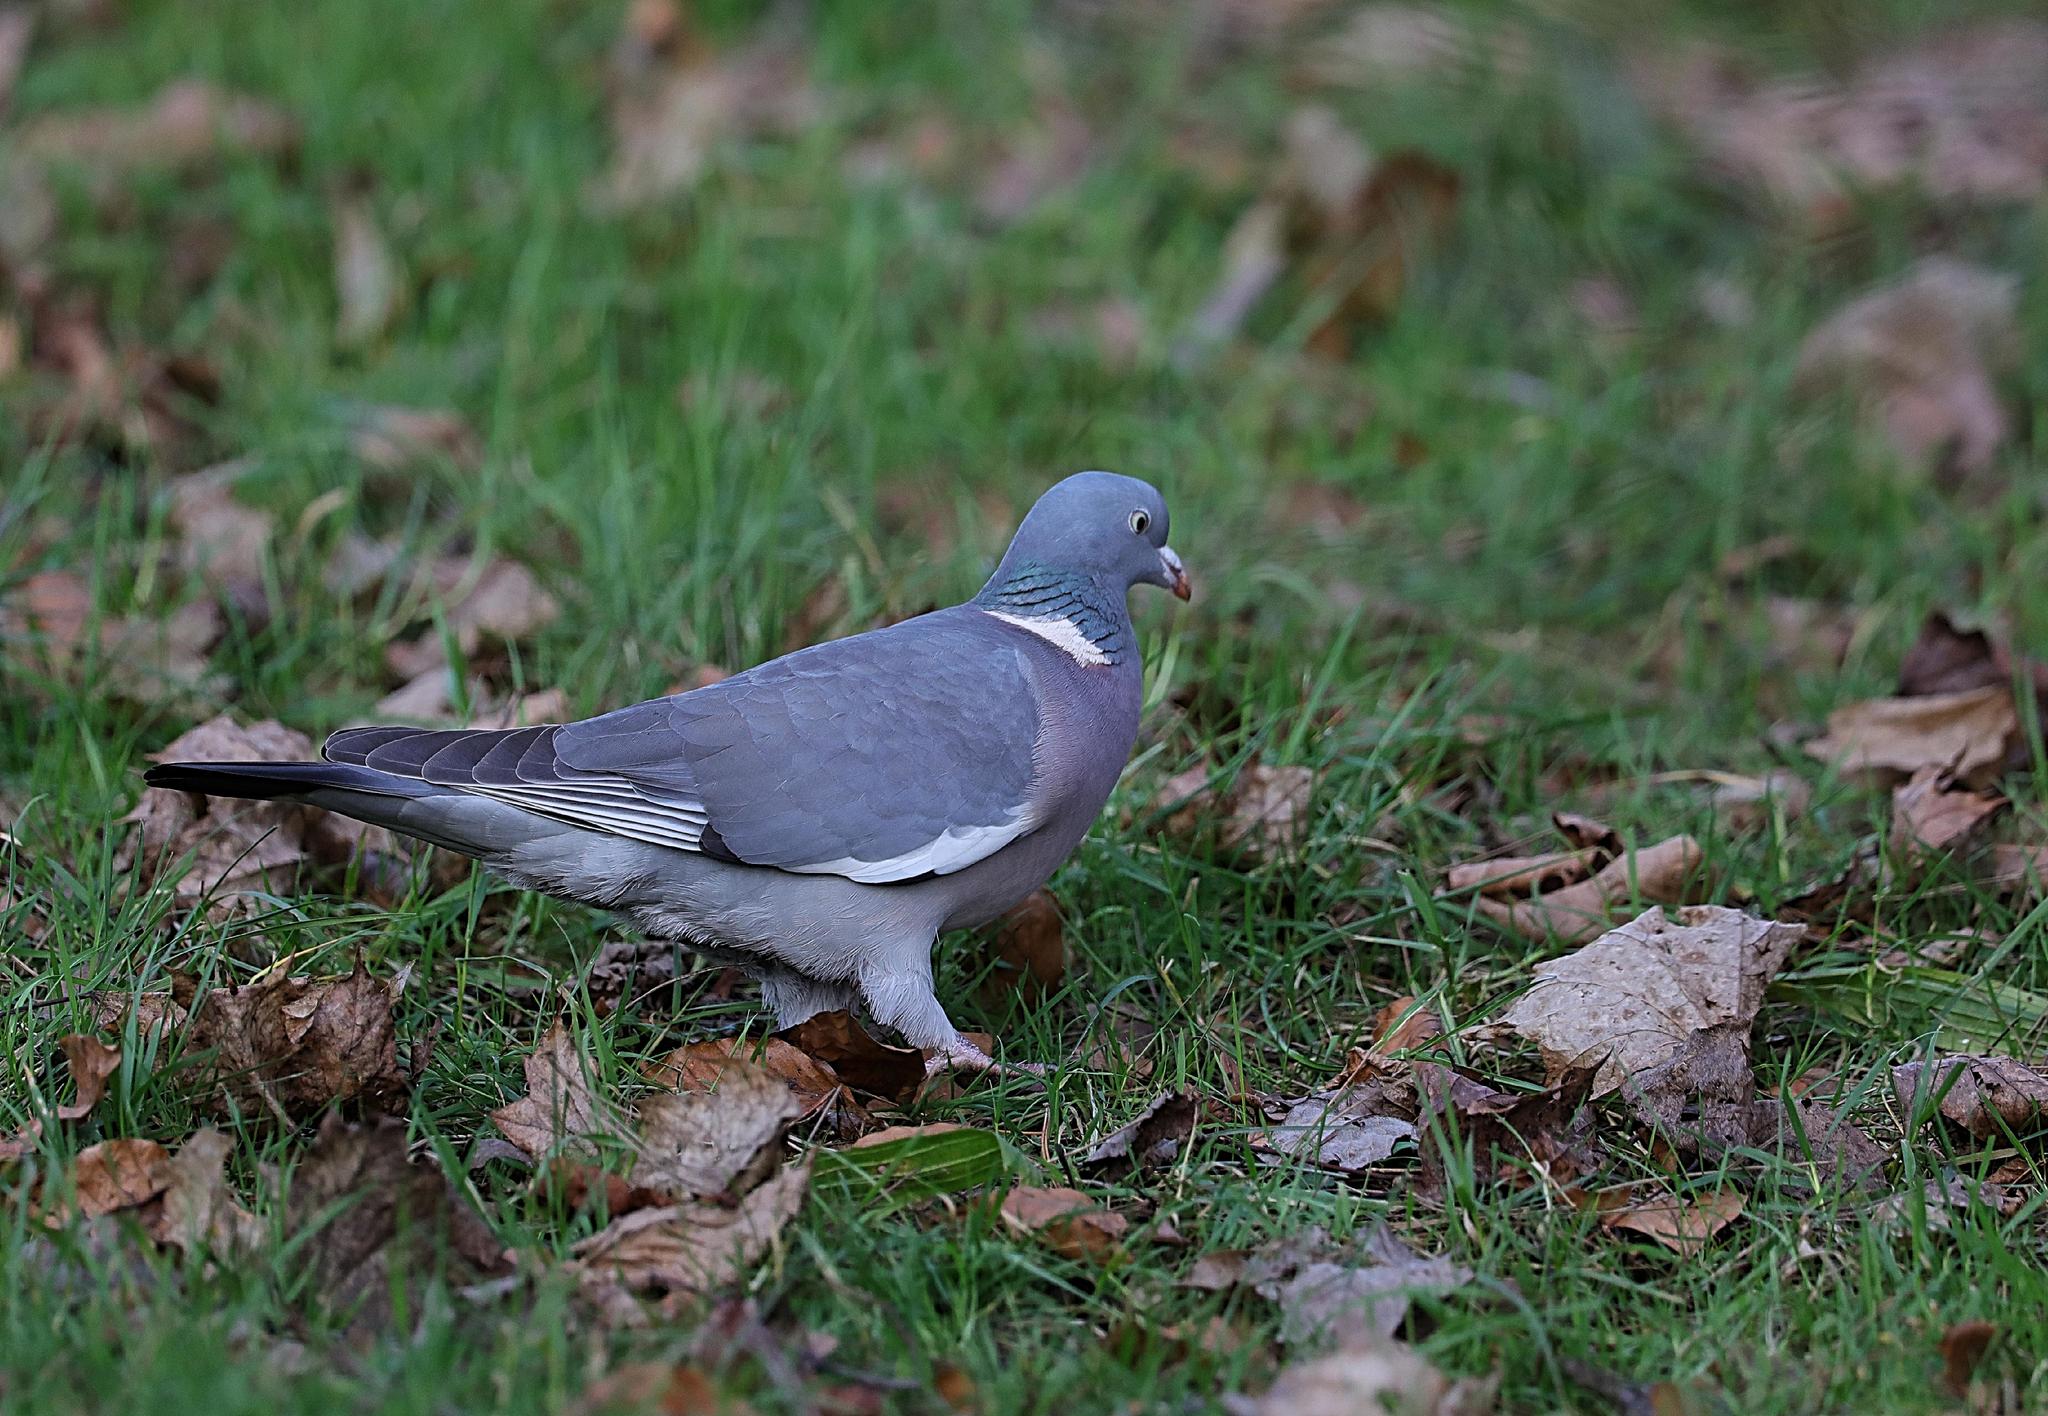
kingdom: Animalia
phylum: Chordata
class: Aves
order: Columbiformes
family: Columbidae
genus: Columba
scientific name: Columba palumbus
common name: Common wood pigeon
